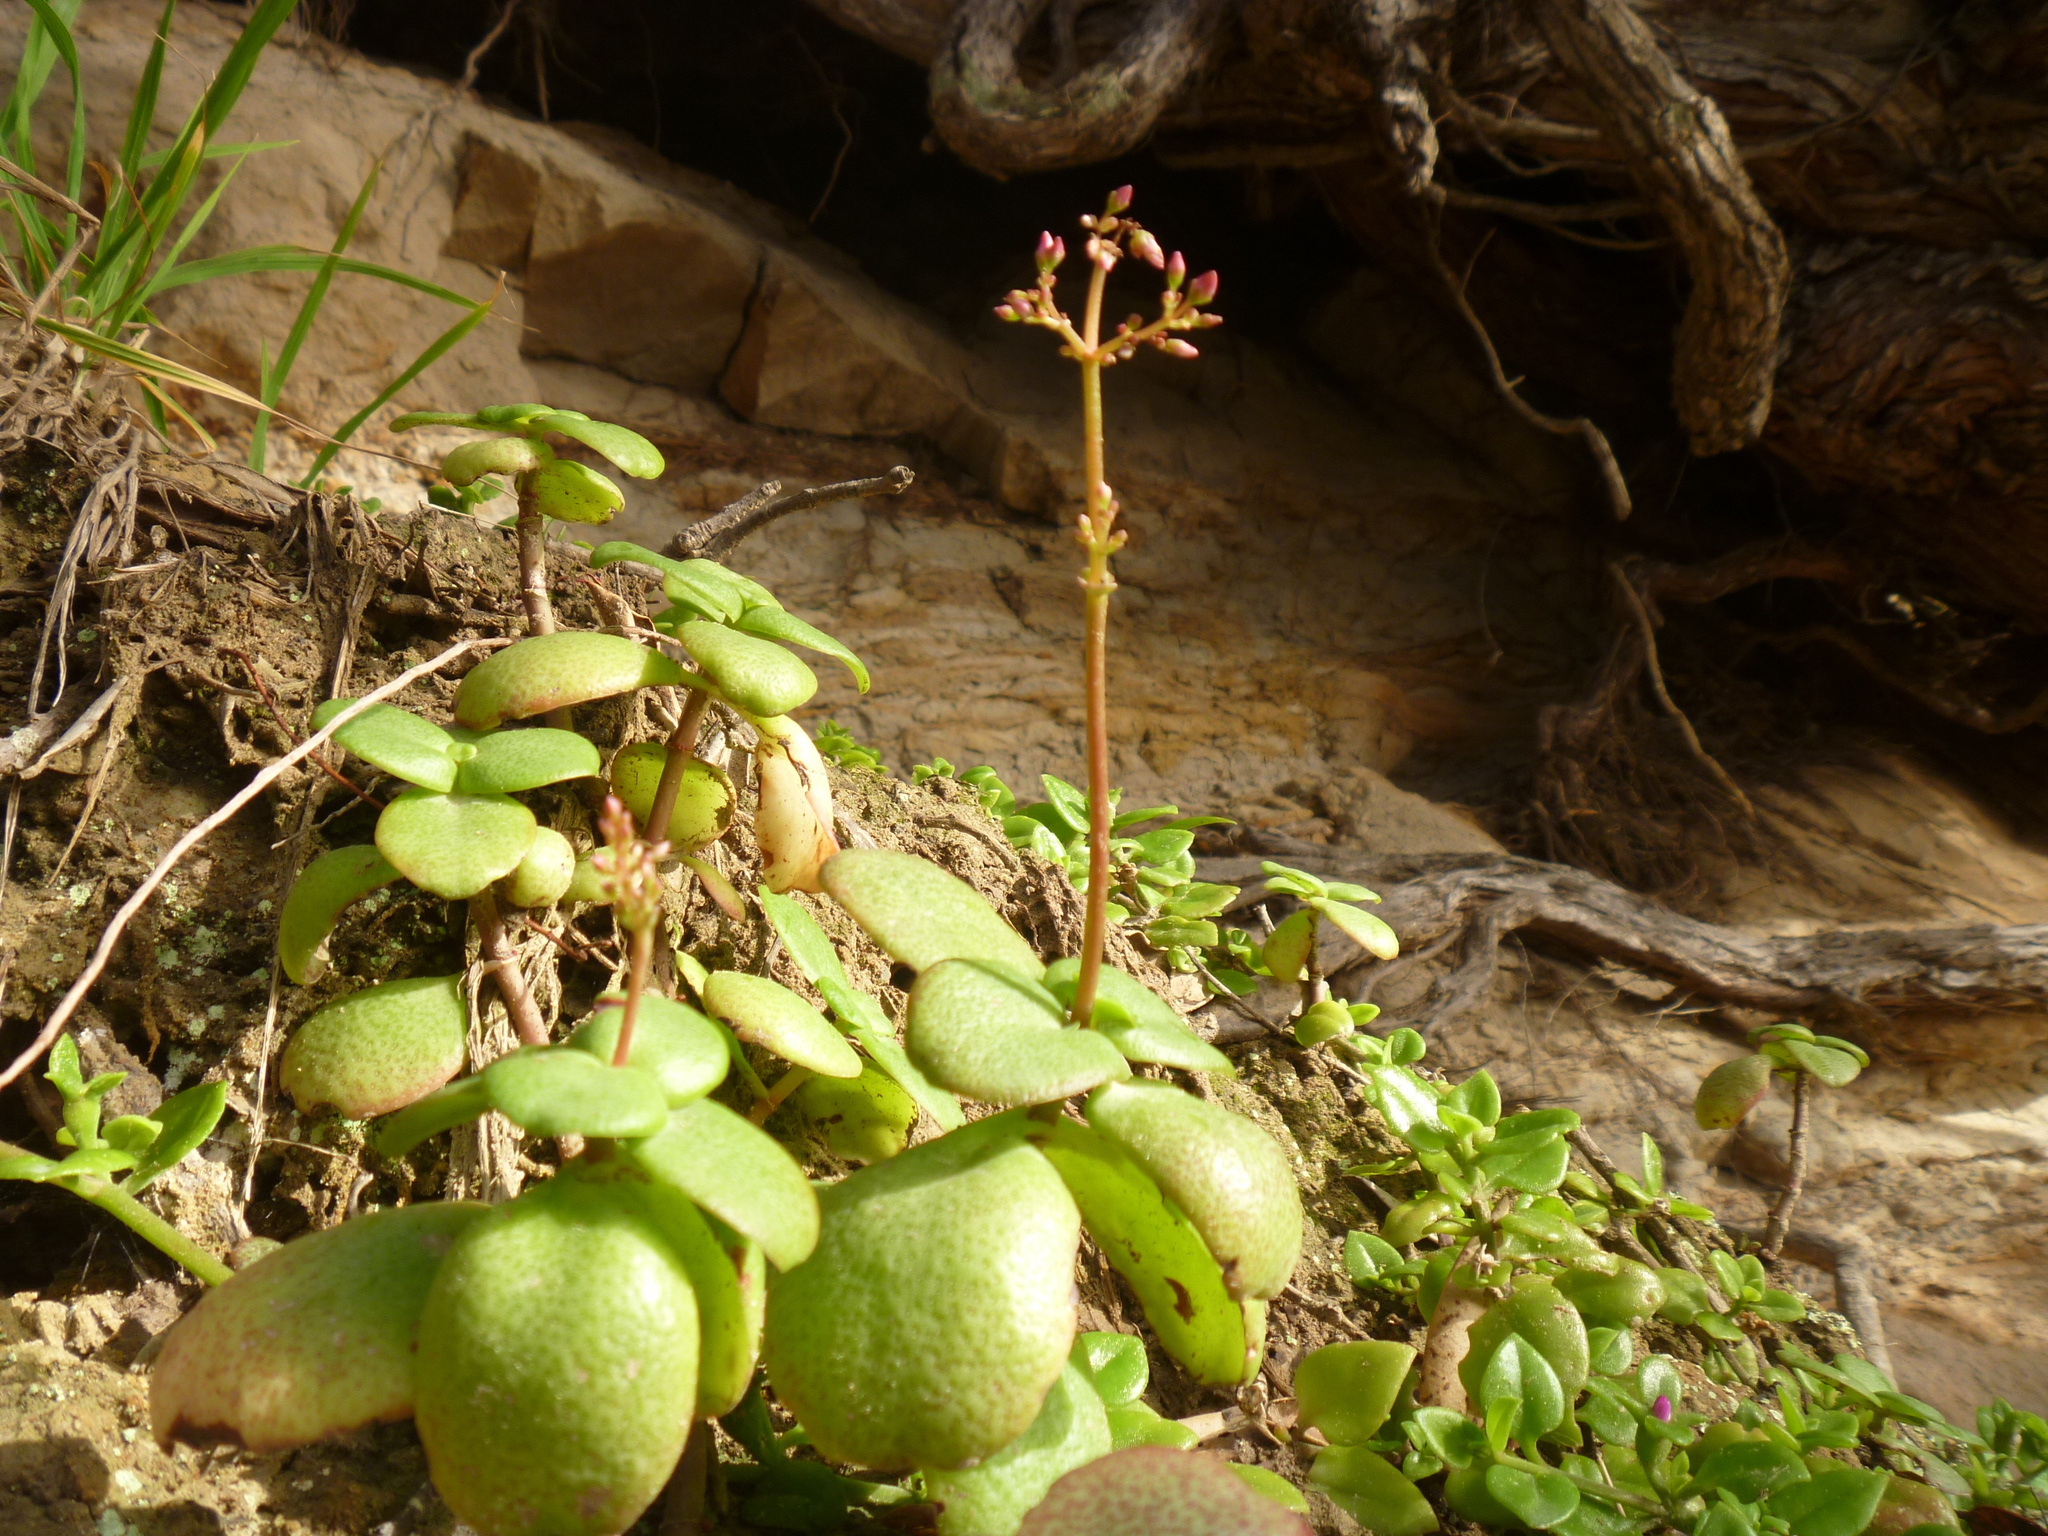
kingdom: Plantae
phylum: Tracheophyta
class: Magnoliopsida
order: Saxifragales
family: Crassulaceae
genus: Crassula
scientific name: Crassula multicava
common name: Cape province pygmyweed
